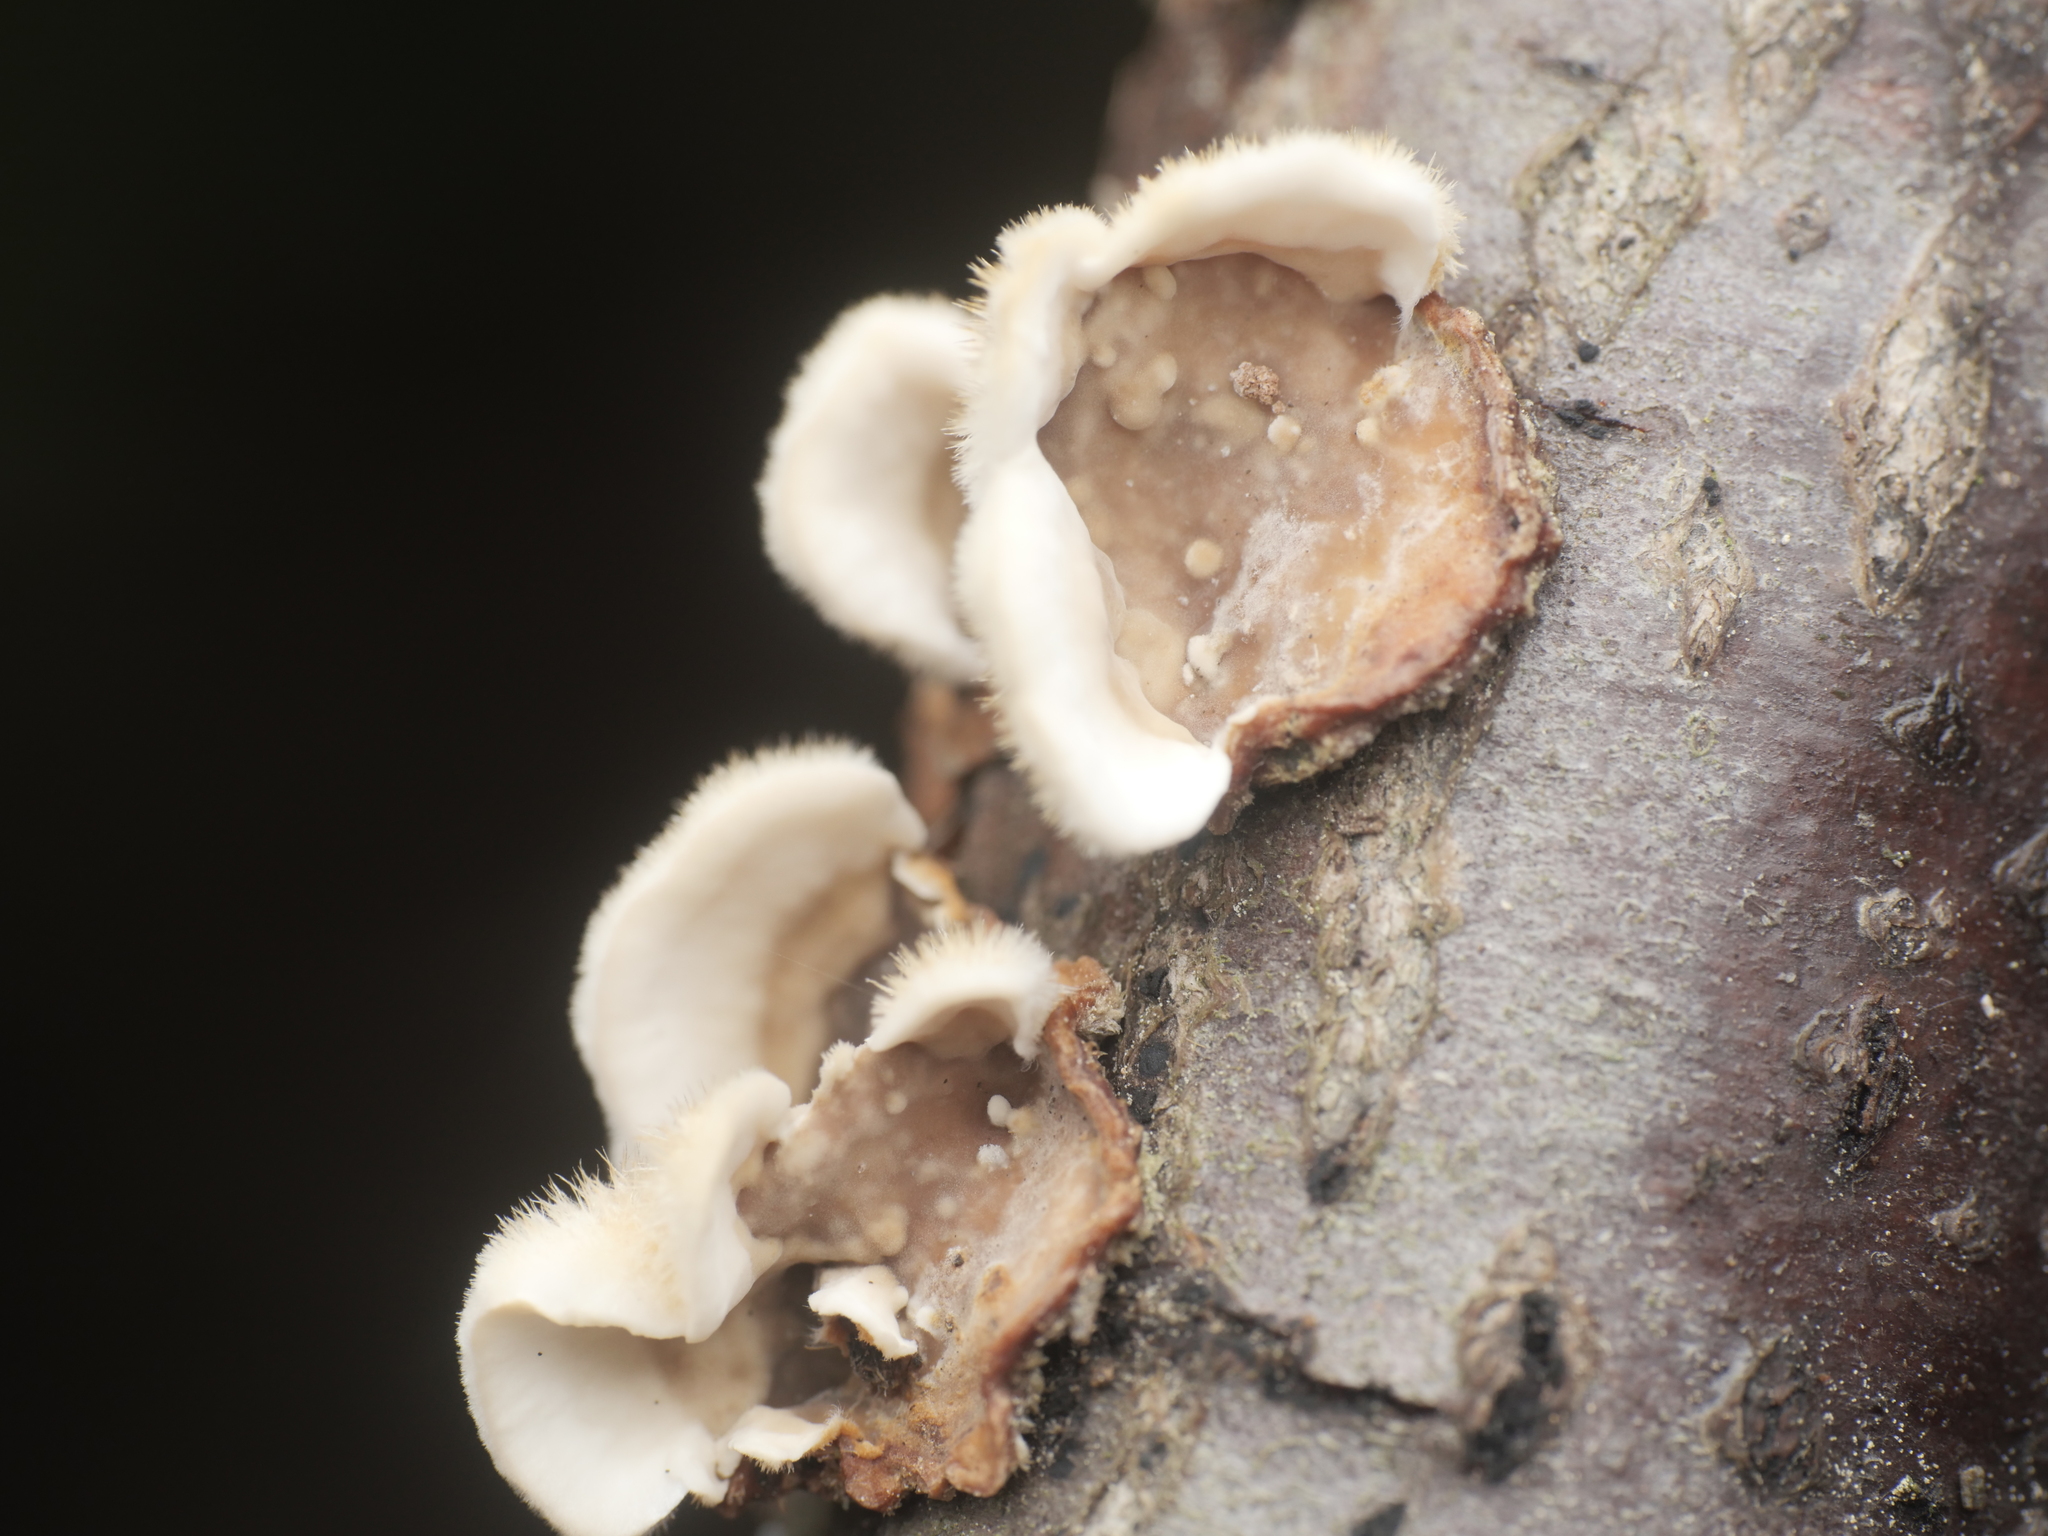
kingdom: Fungi
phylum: Basidiomycota
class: Agaricomycetes
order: Russulales
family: Stereaceae
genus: Stereum
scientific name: Stereum hirsutum
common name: Hairy curtain crust
